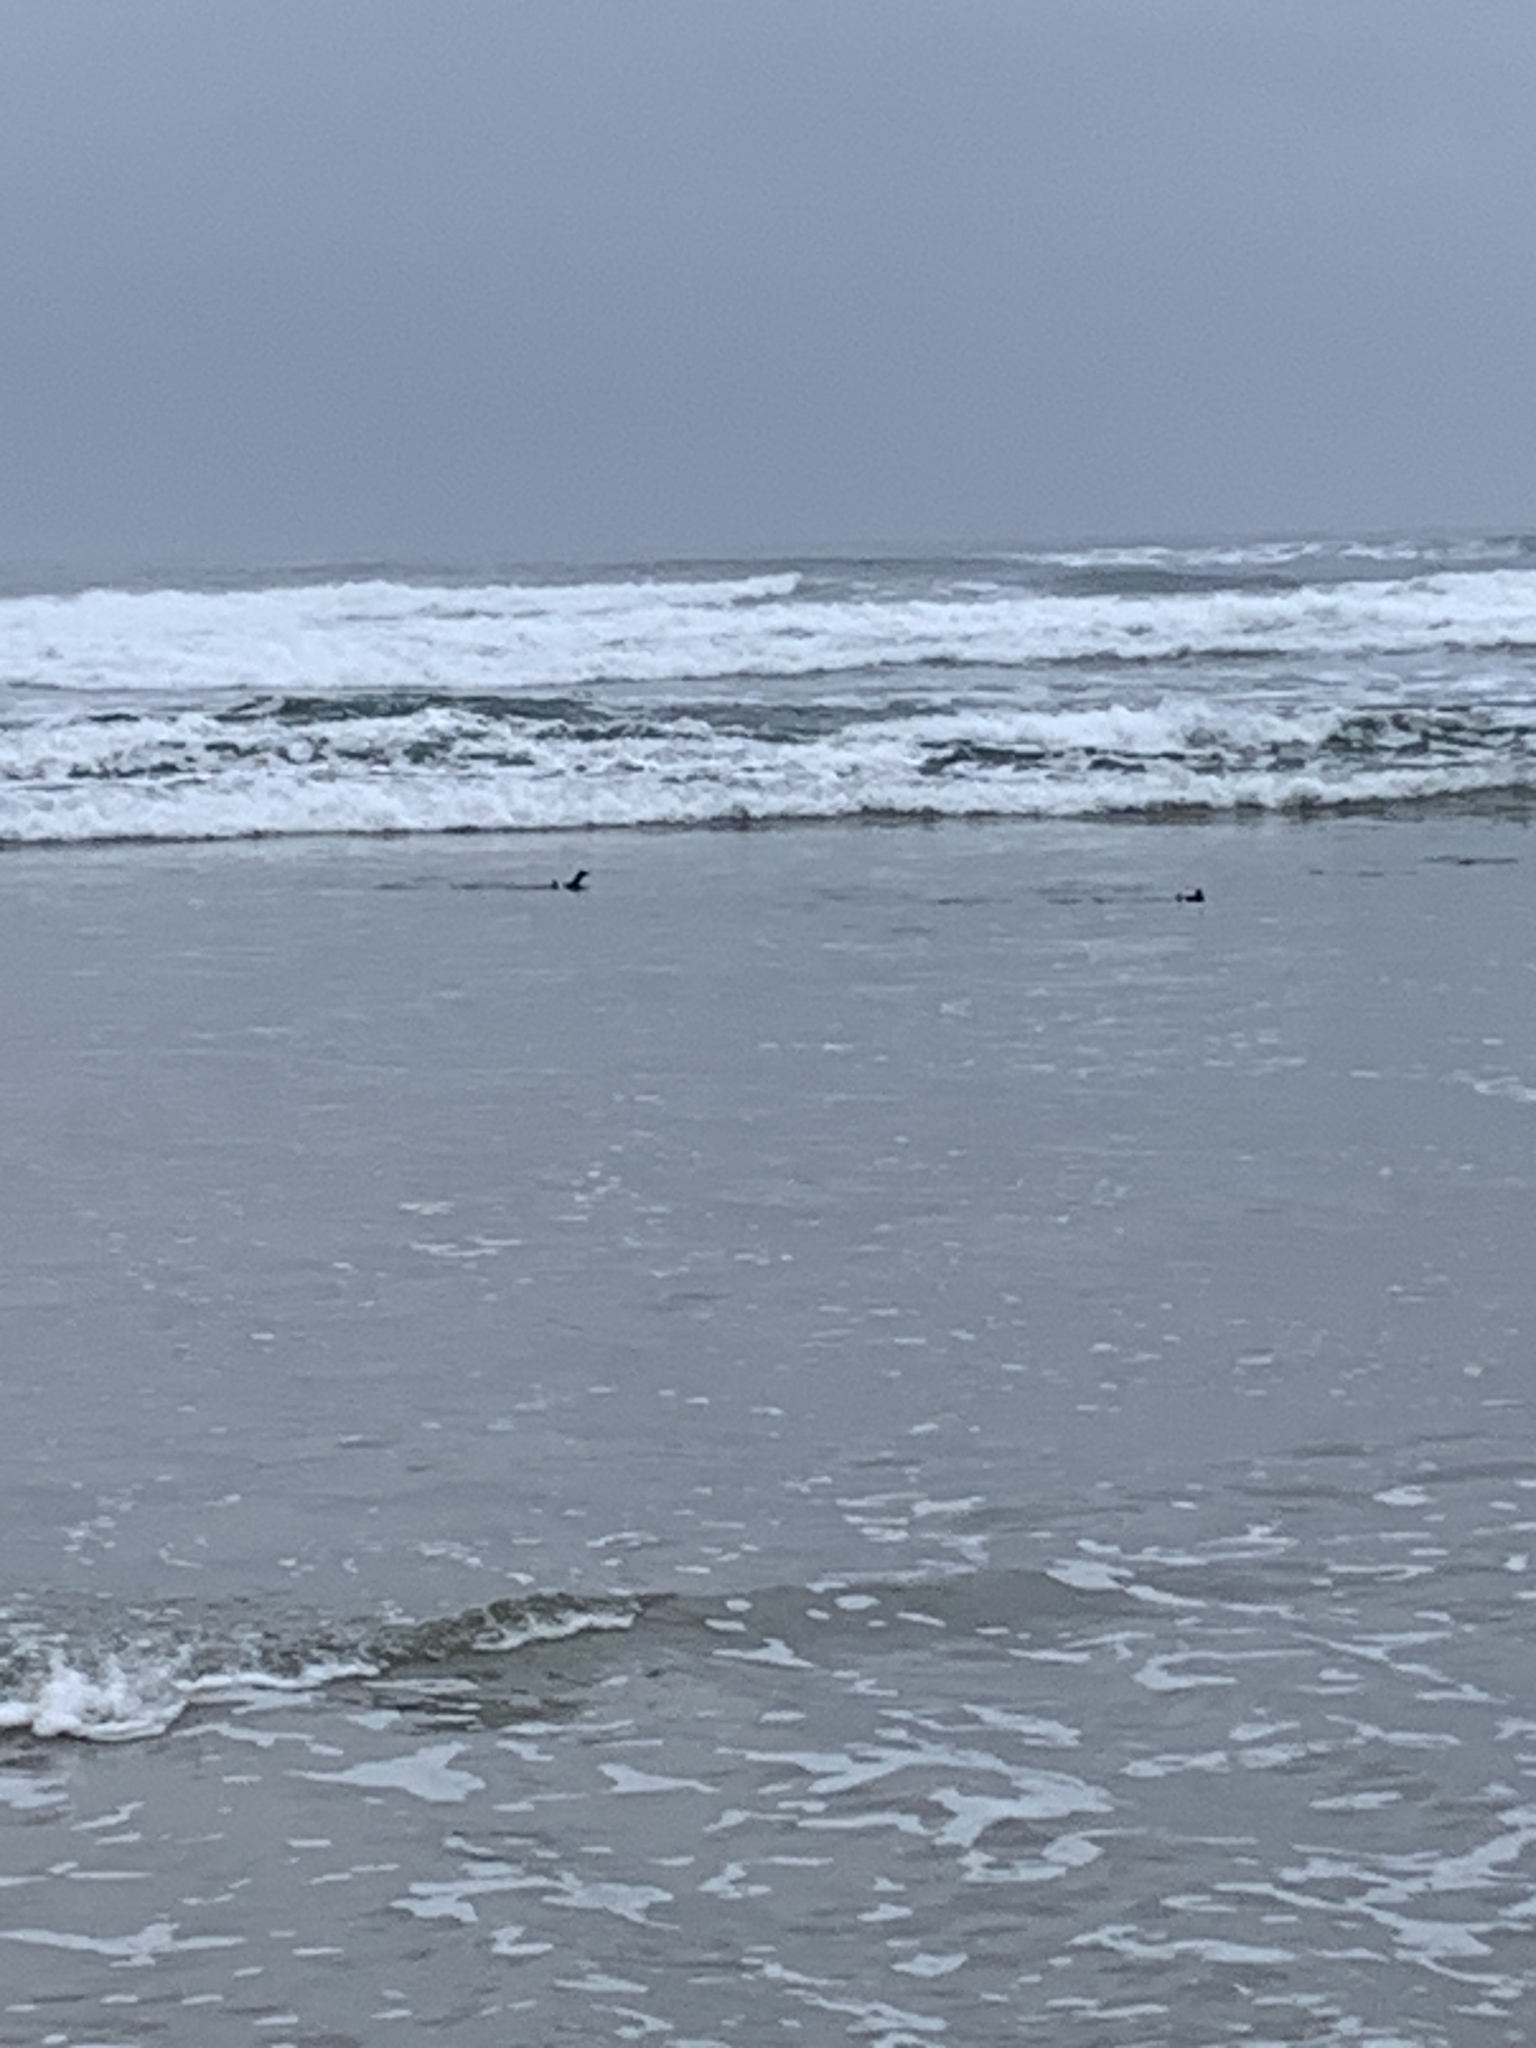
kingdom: Animalia
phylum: Chordata
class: Aves
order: Charadriiformes
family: Alcidae
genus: Cepphus
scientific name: Cepphus columba
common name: Pigeon guillemot
